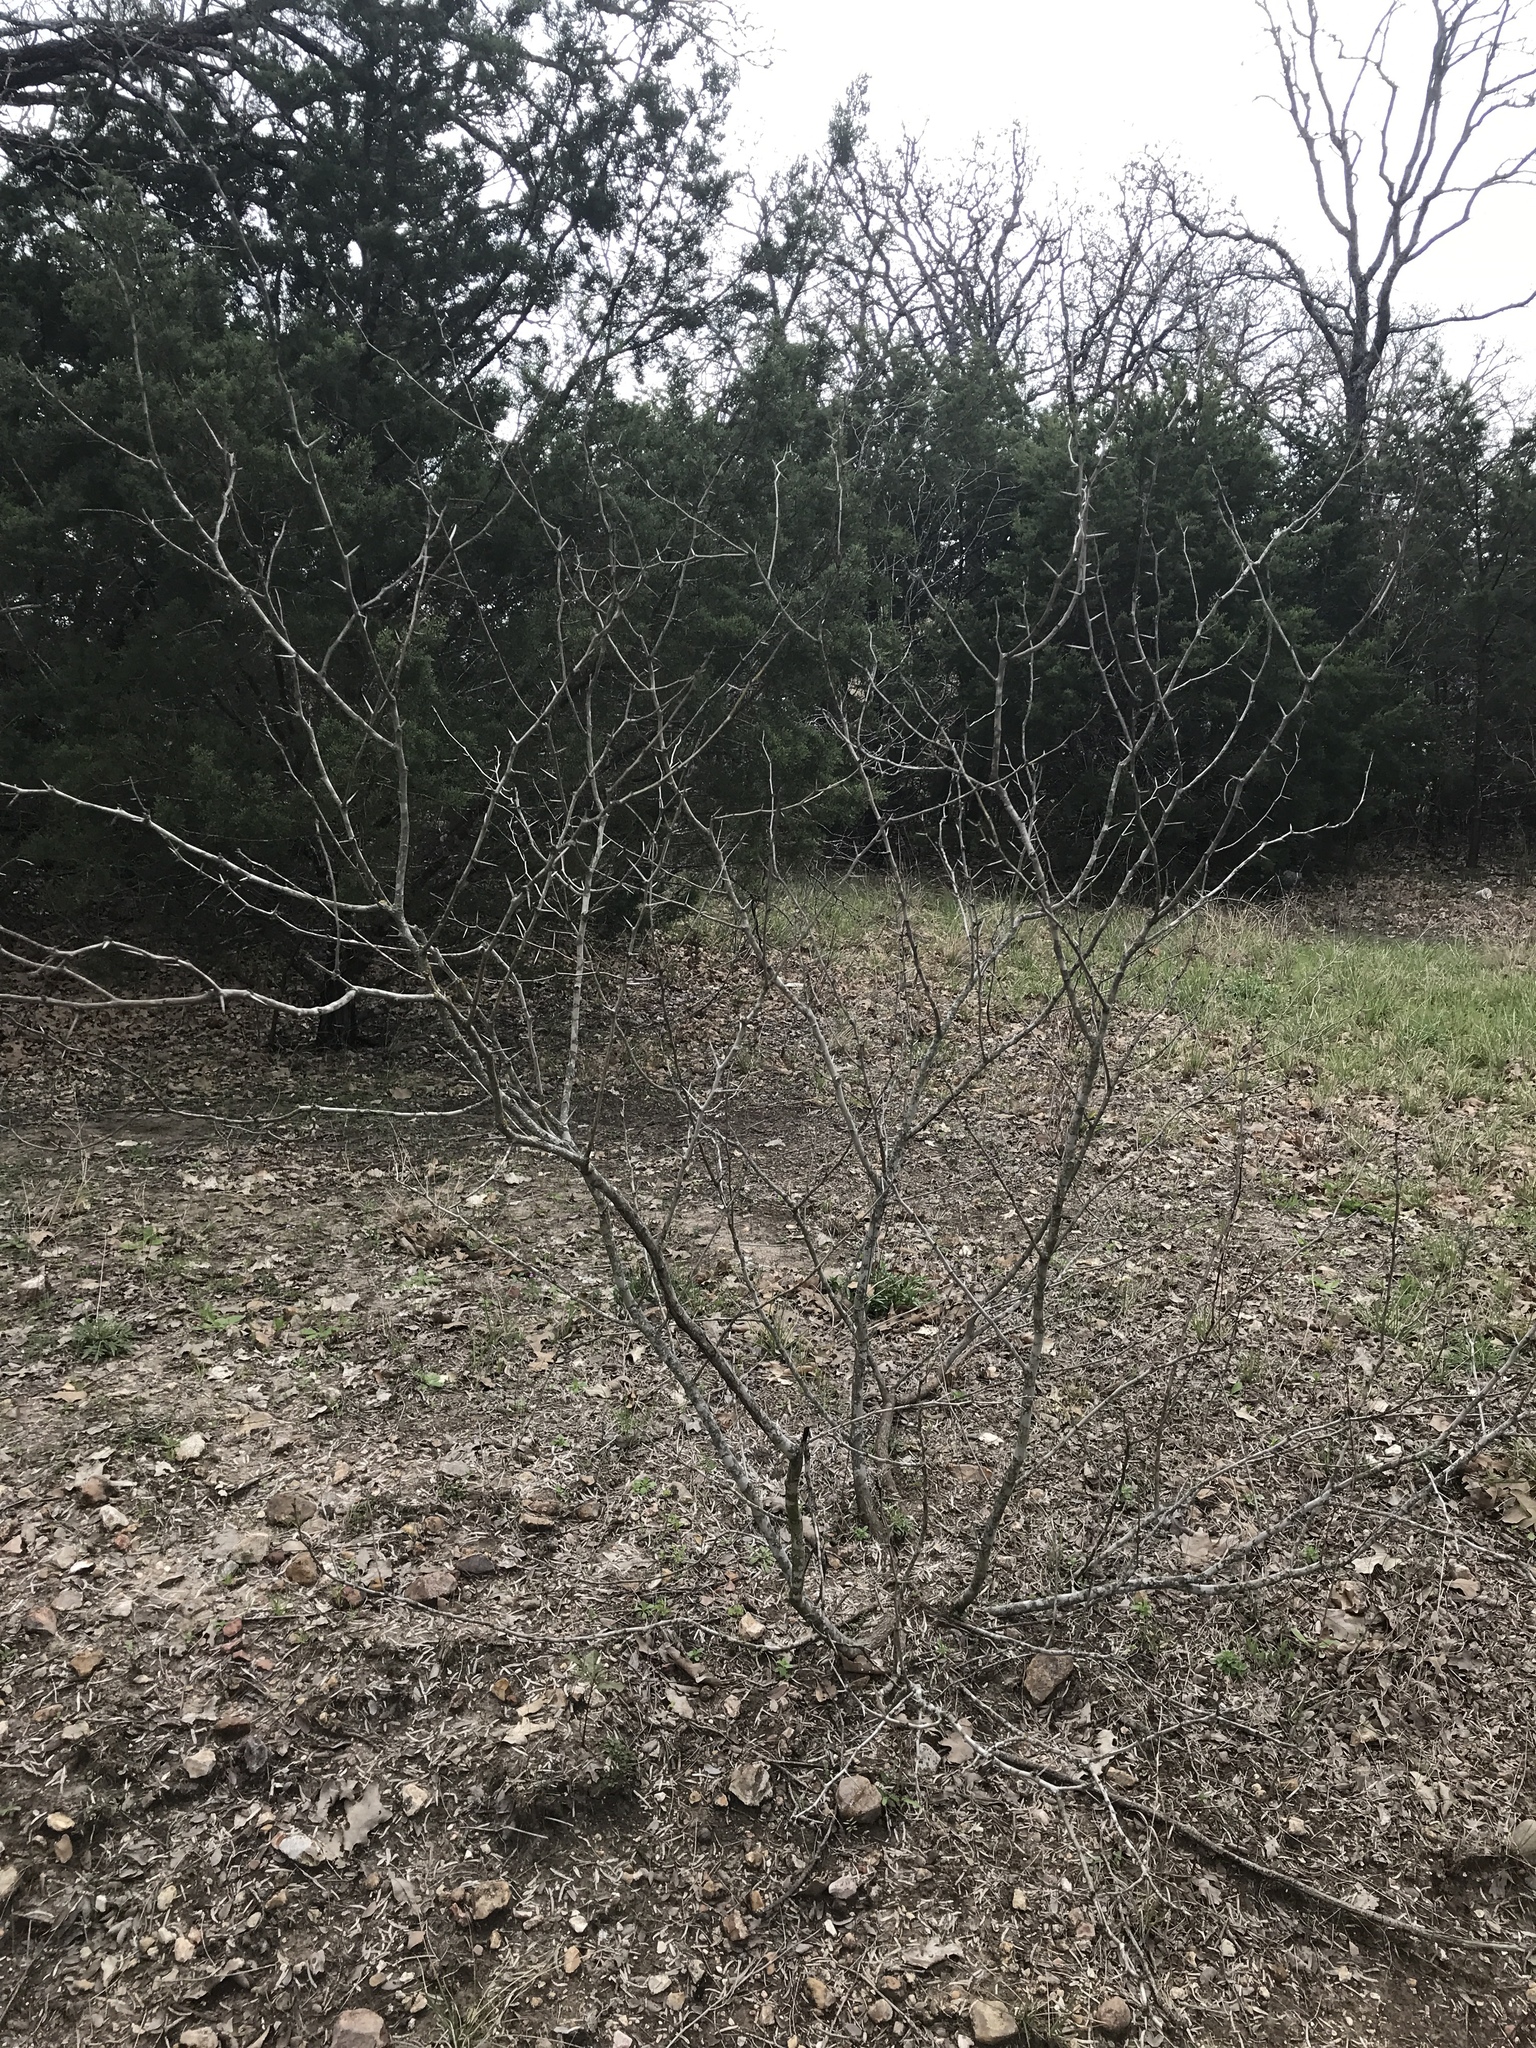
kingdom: Plantae
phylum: Tracheophyta
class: Magnoliopsida
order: Fabales
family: Fabaceae
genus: Prosopis
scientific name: Prosopis glandulosa
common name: Honey mesquite
